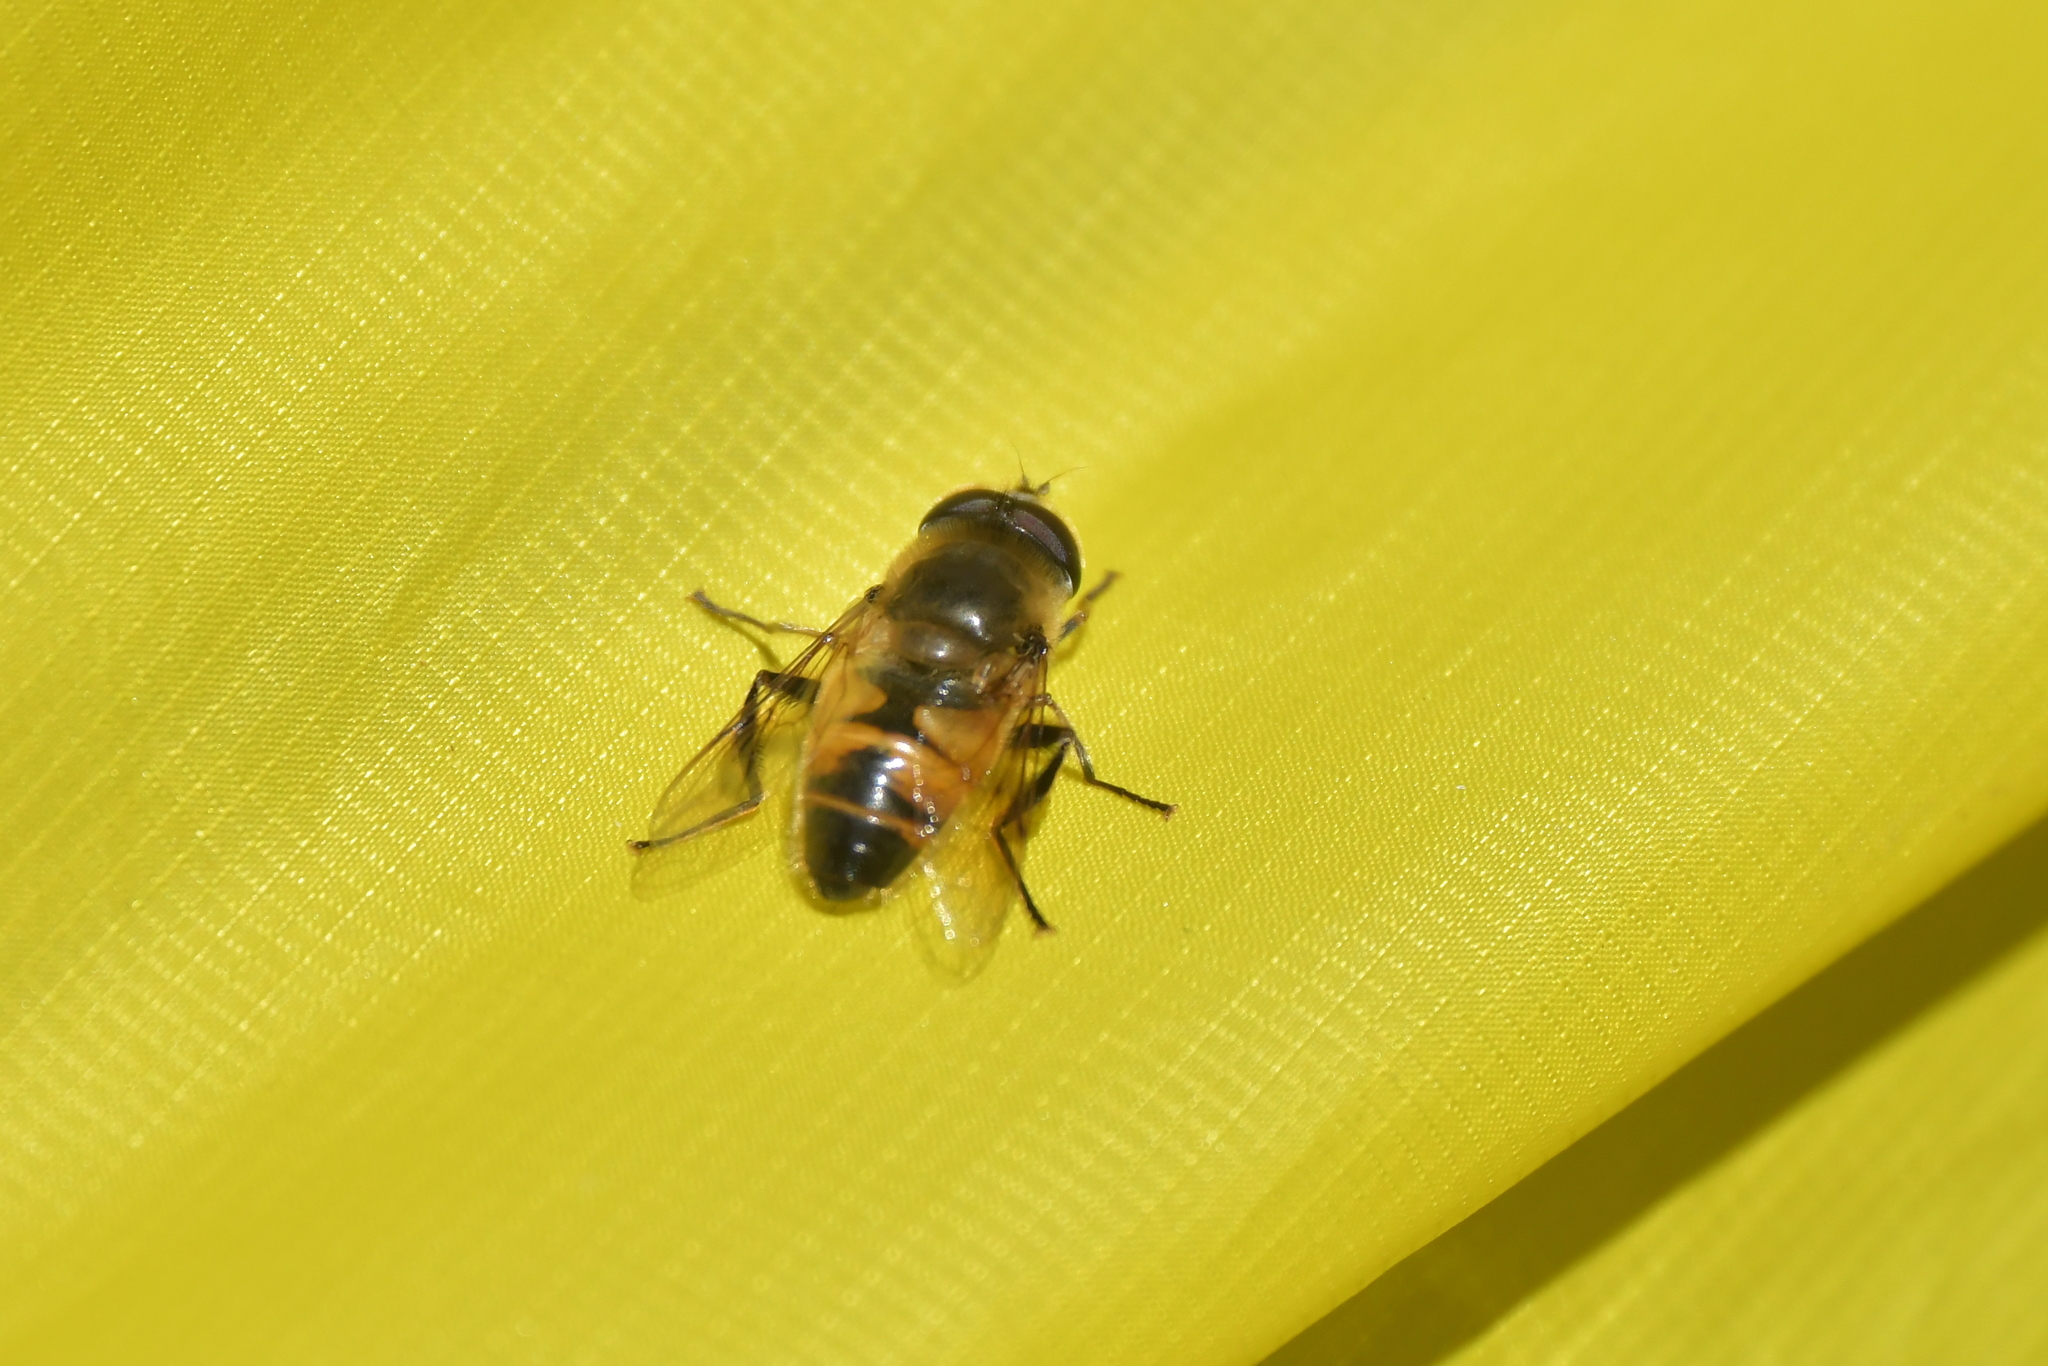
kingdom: Animalia
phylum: Arthropoda
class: Insecta
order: Diptera
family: Syrphidae
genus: Eristalis
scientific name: Eristalis tenax
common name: Drone fly
